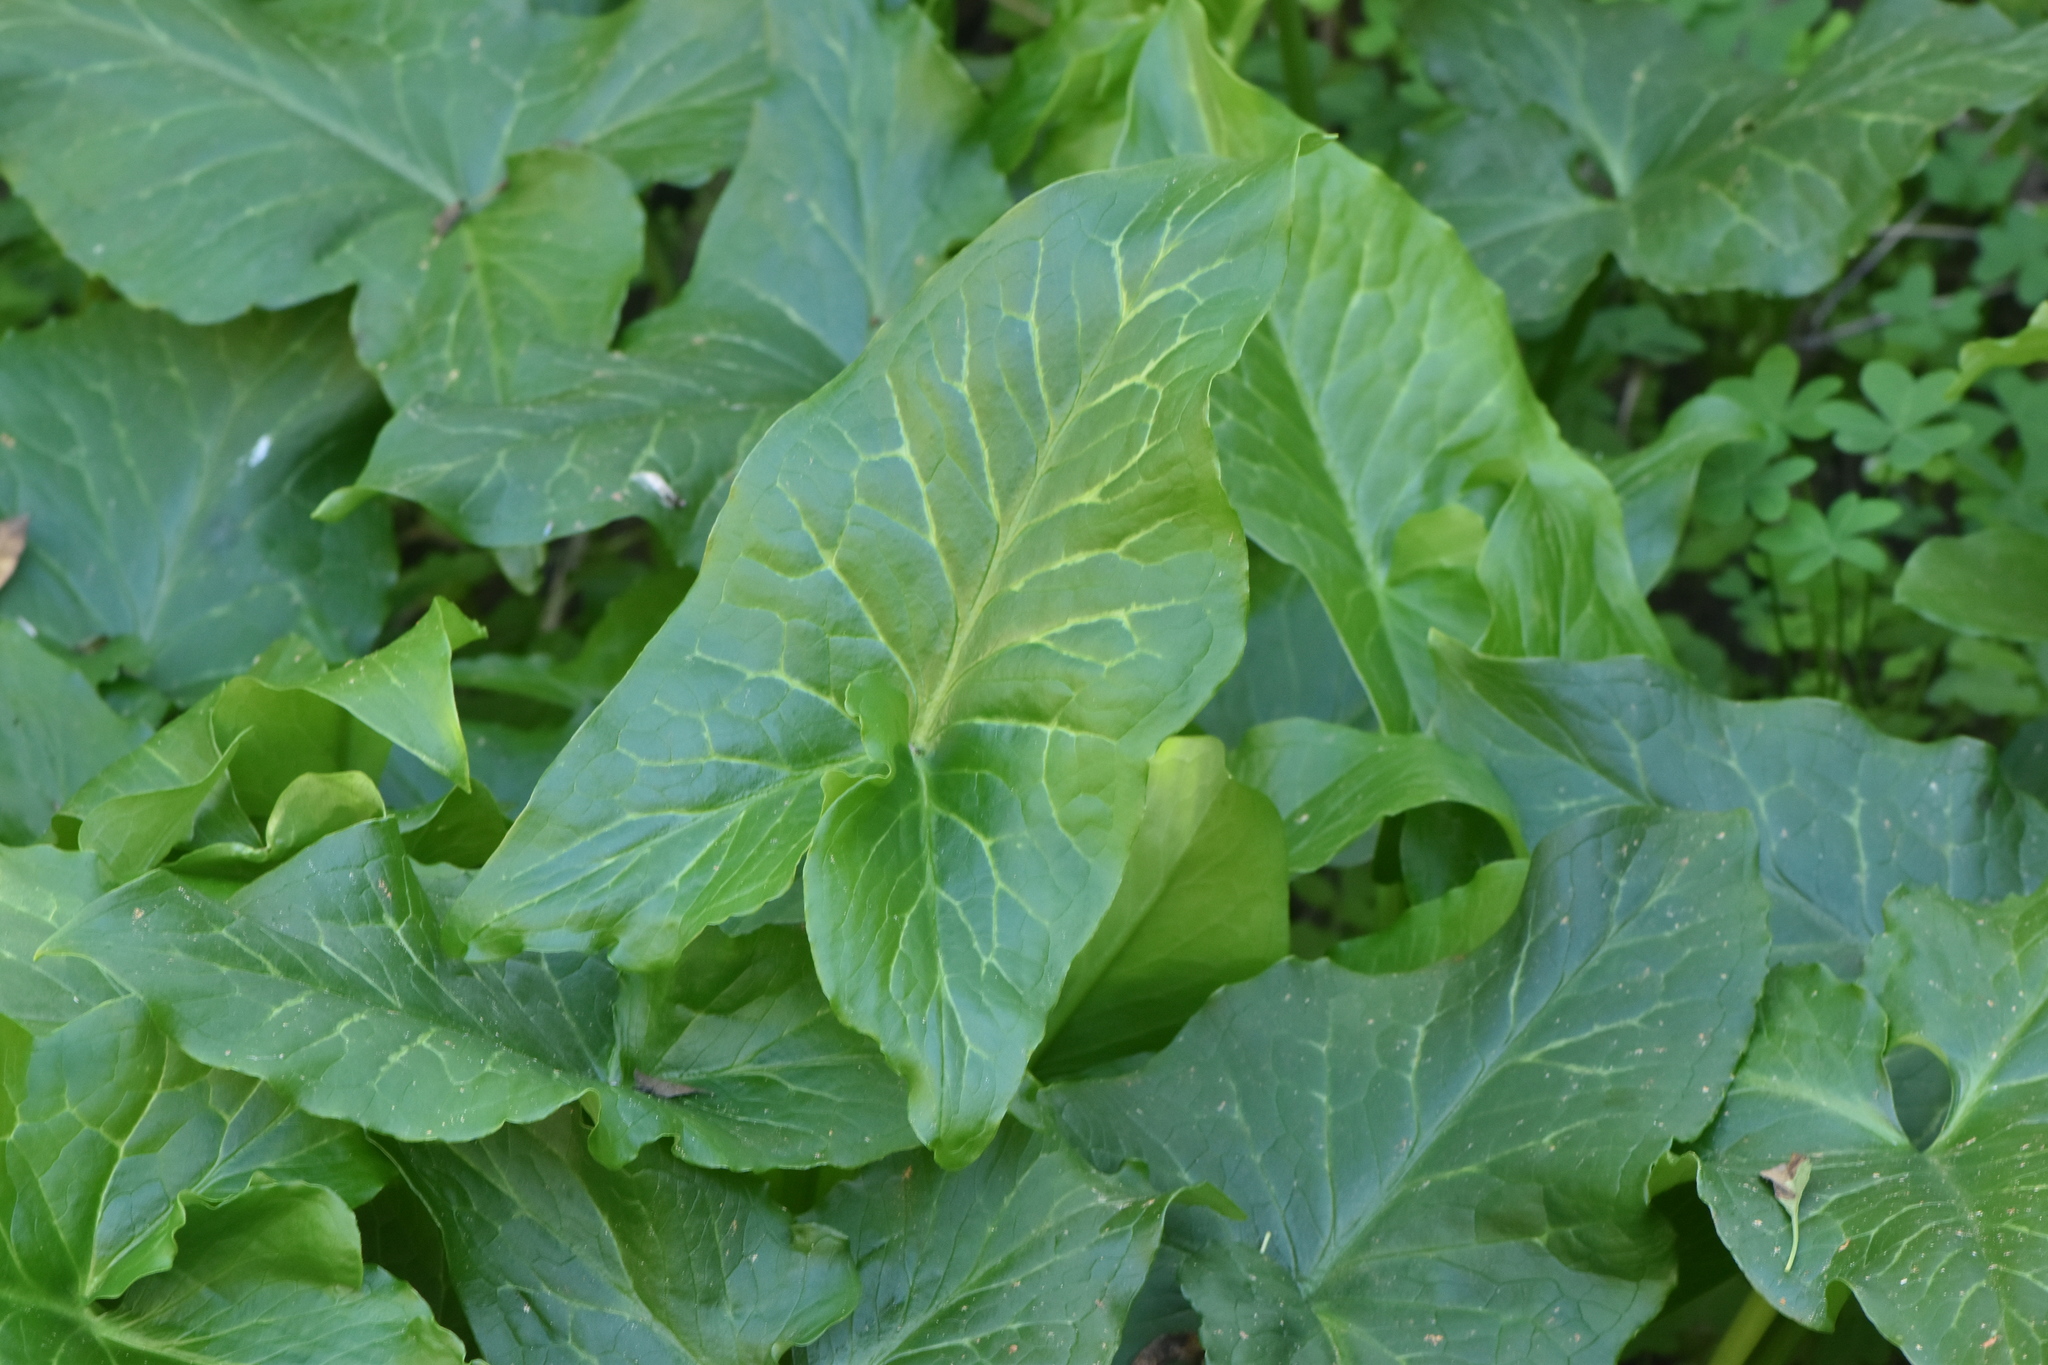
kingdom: Plantae
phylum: Tracheophyta
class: Liliopsida
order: Alismatales
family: Araceae
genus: Arum
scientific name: Arum italicum
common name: Italian lords-and-ladies
